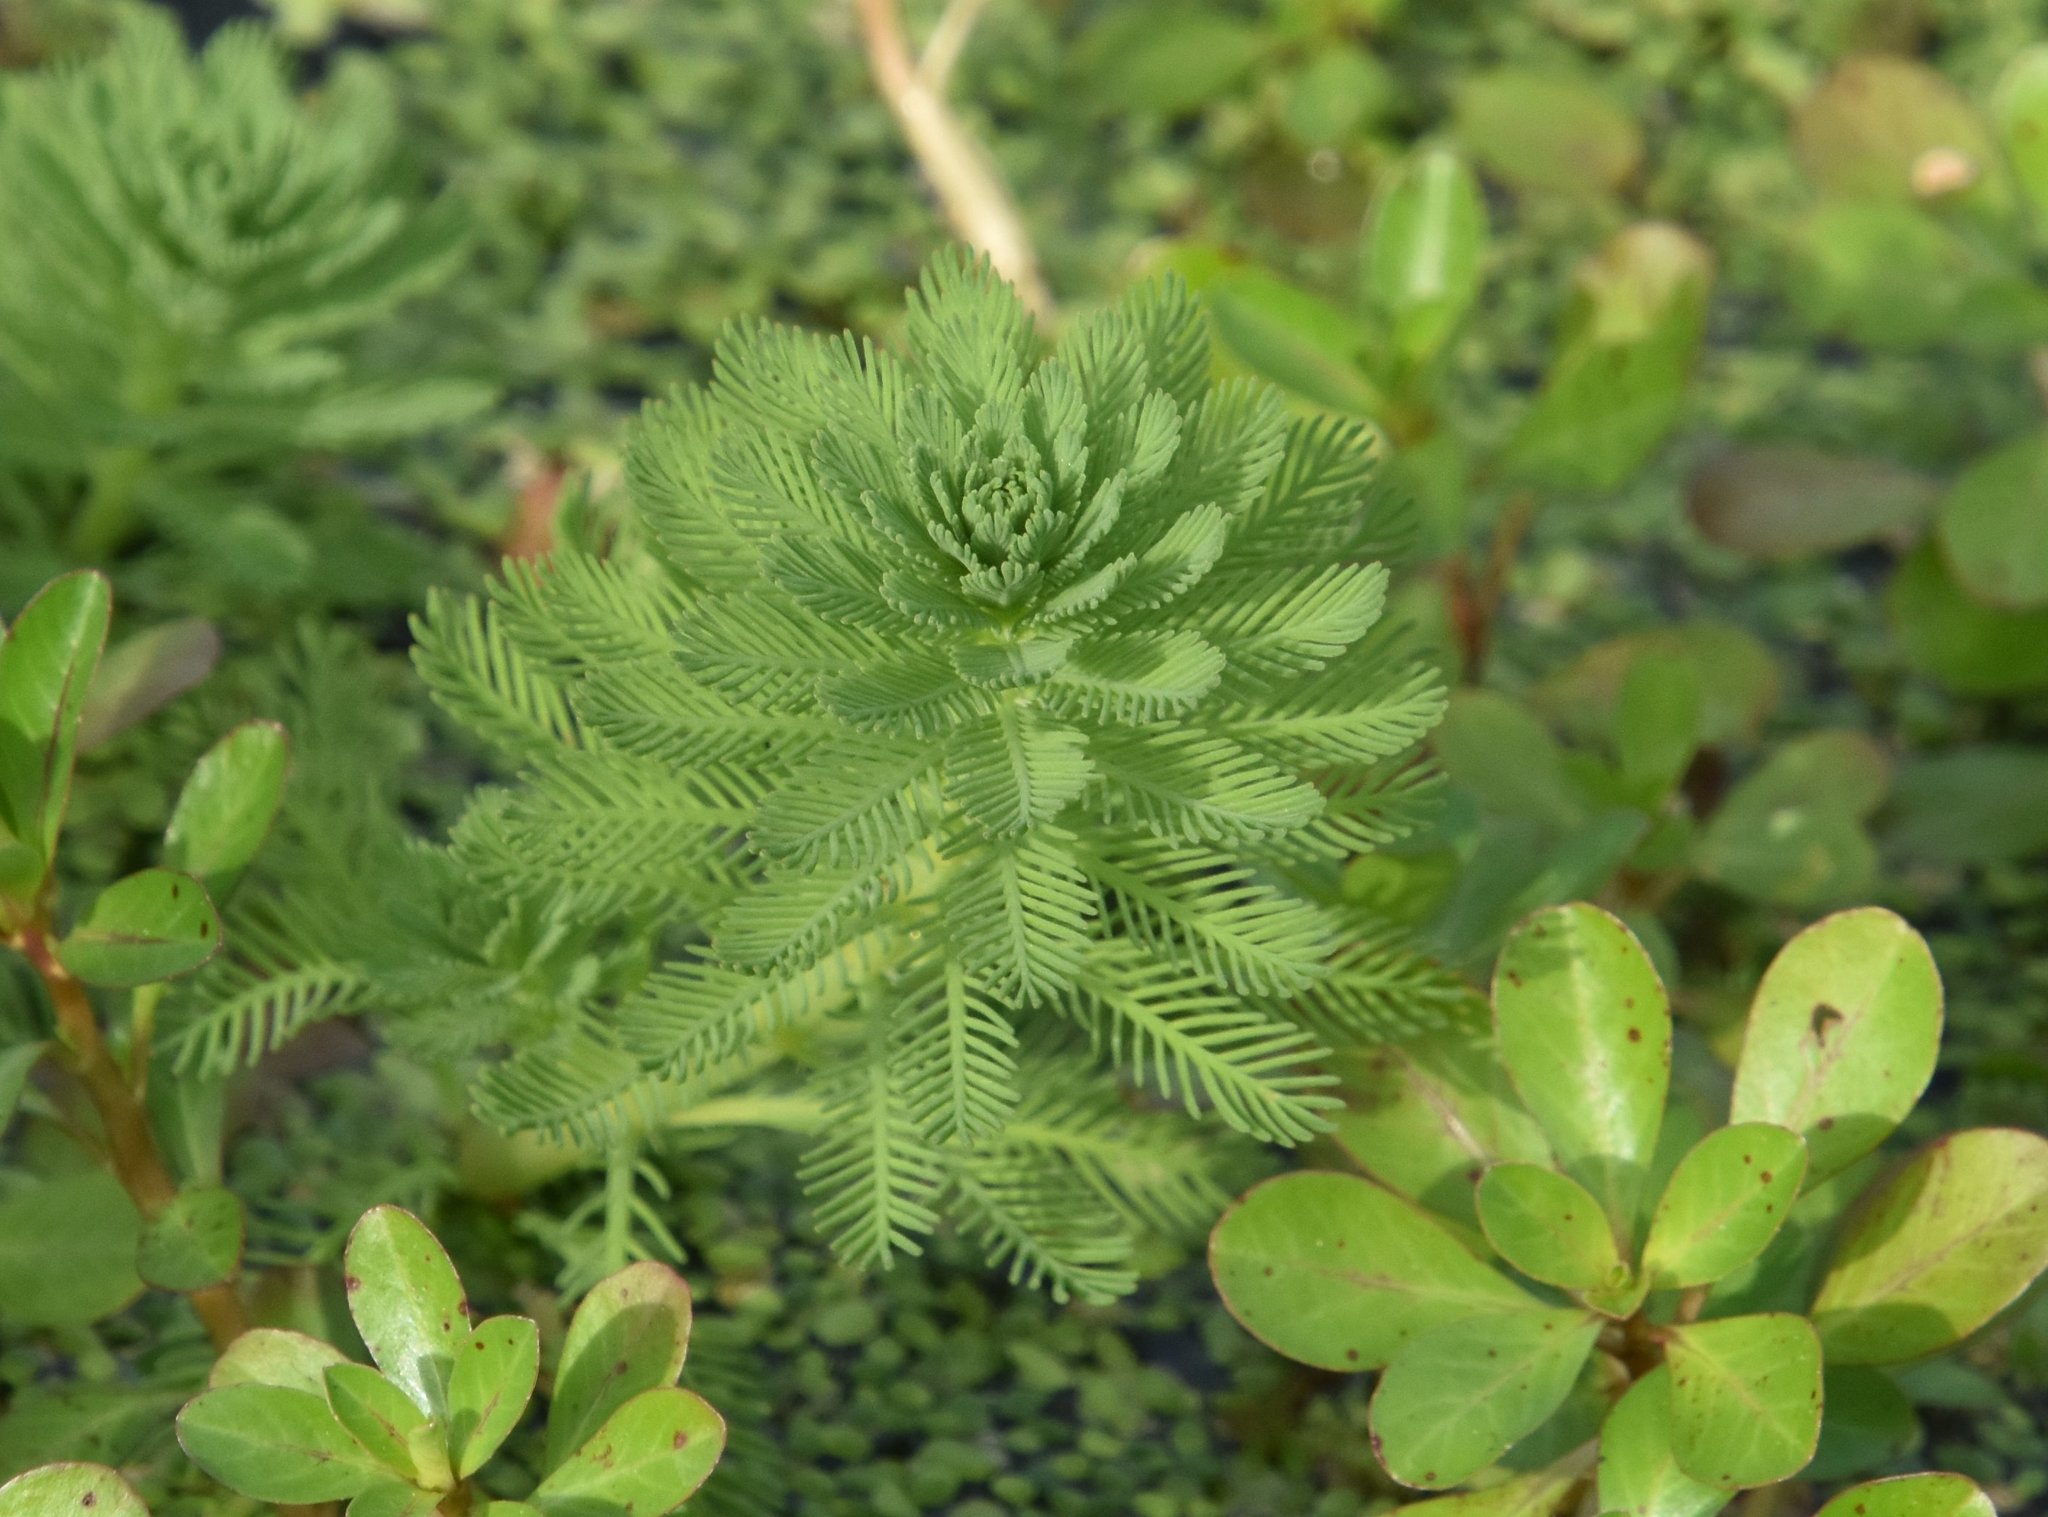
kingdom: Plantae
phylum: Tracheophyta
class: Magnoliopsida
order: Saxifragales
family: Haloragaceae
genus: Myriophyllum
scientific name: Myriophyllum aquaticum
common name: Parrot's feather
